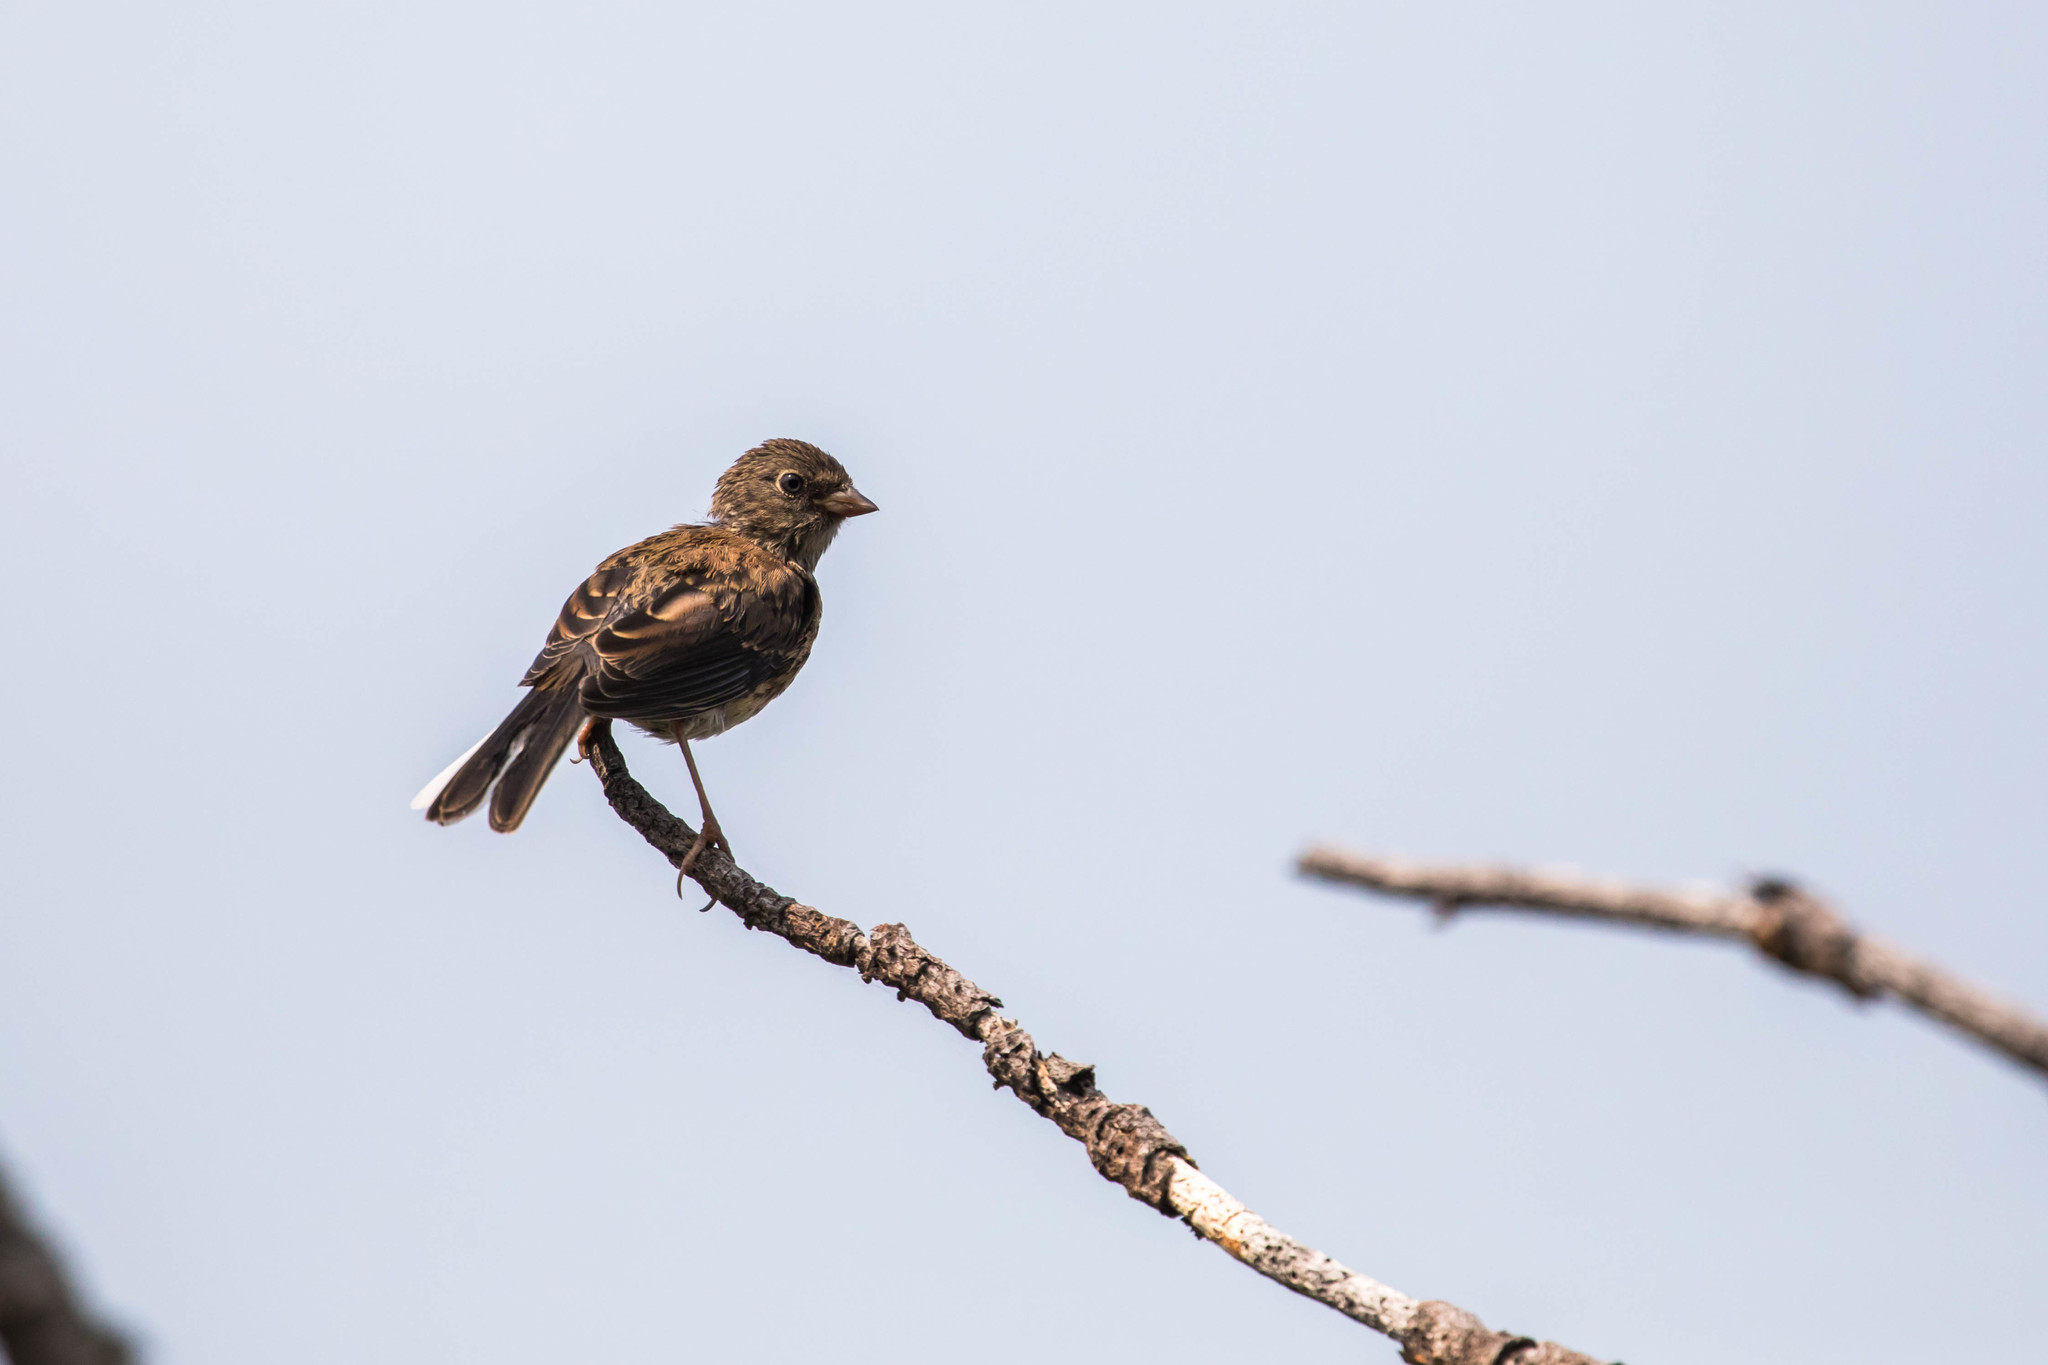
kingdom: Animalia
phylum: Chordata
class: Aves
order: Passeriformes
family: Passerellidae
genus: Junco
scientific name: Junco hyemalis
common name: Dark-eyed junco
